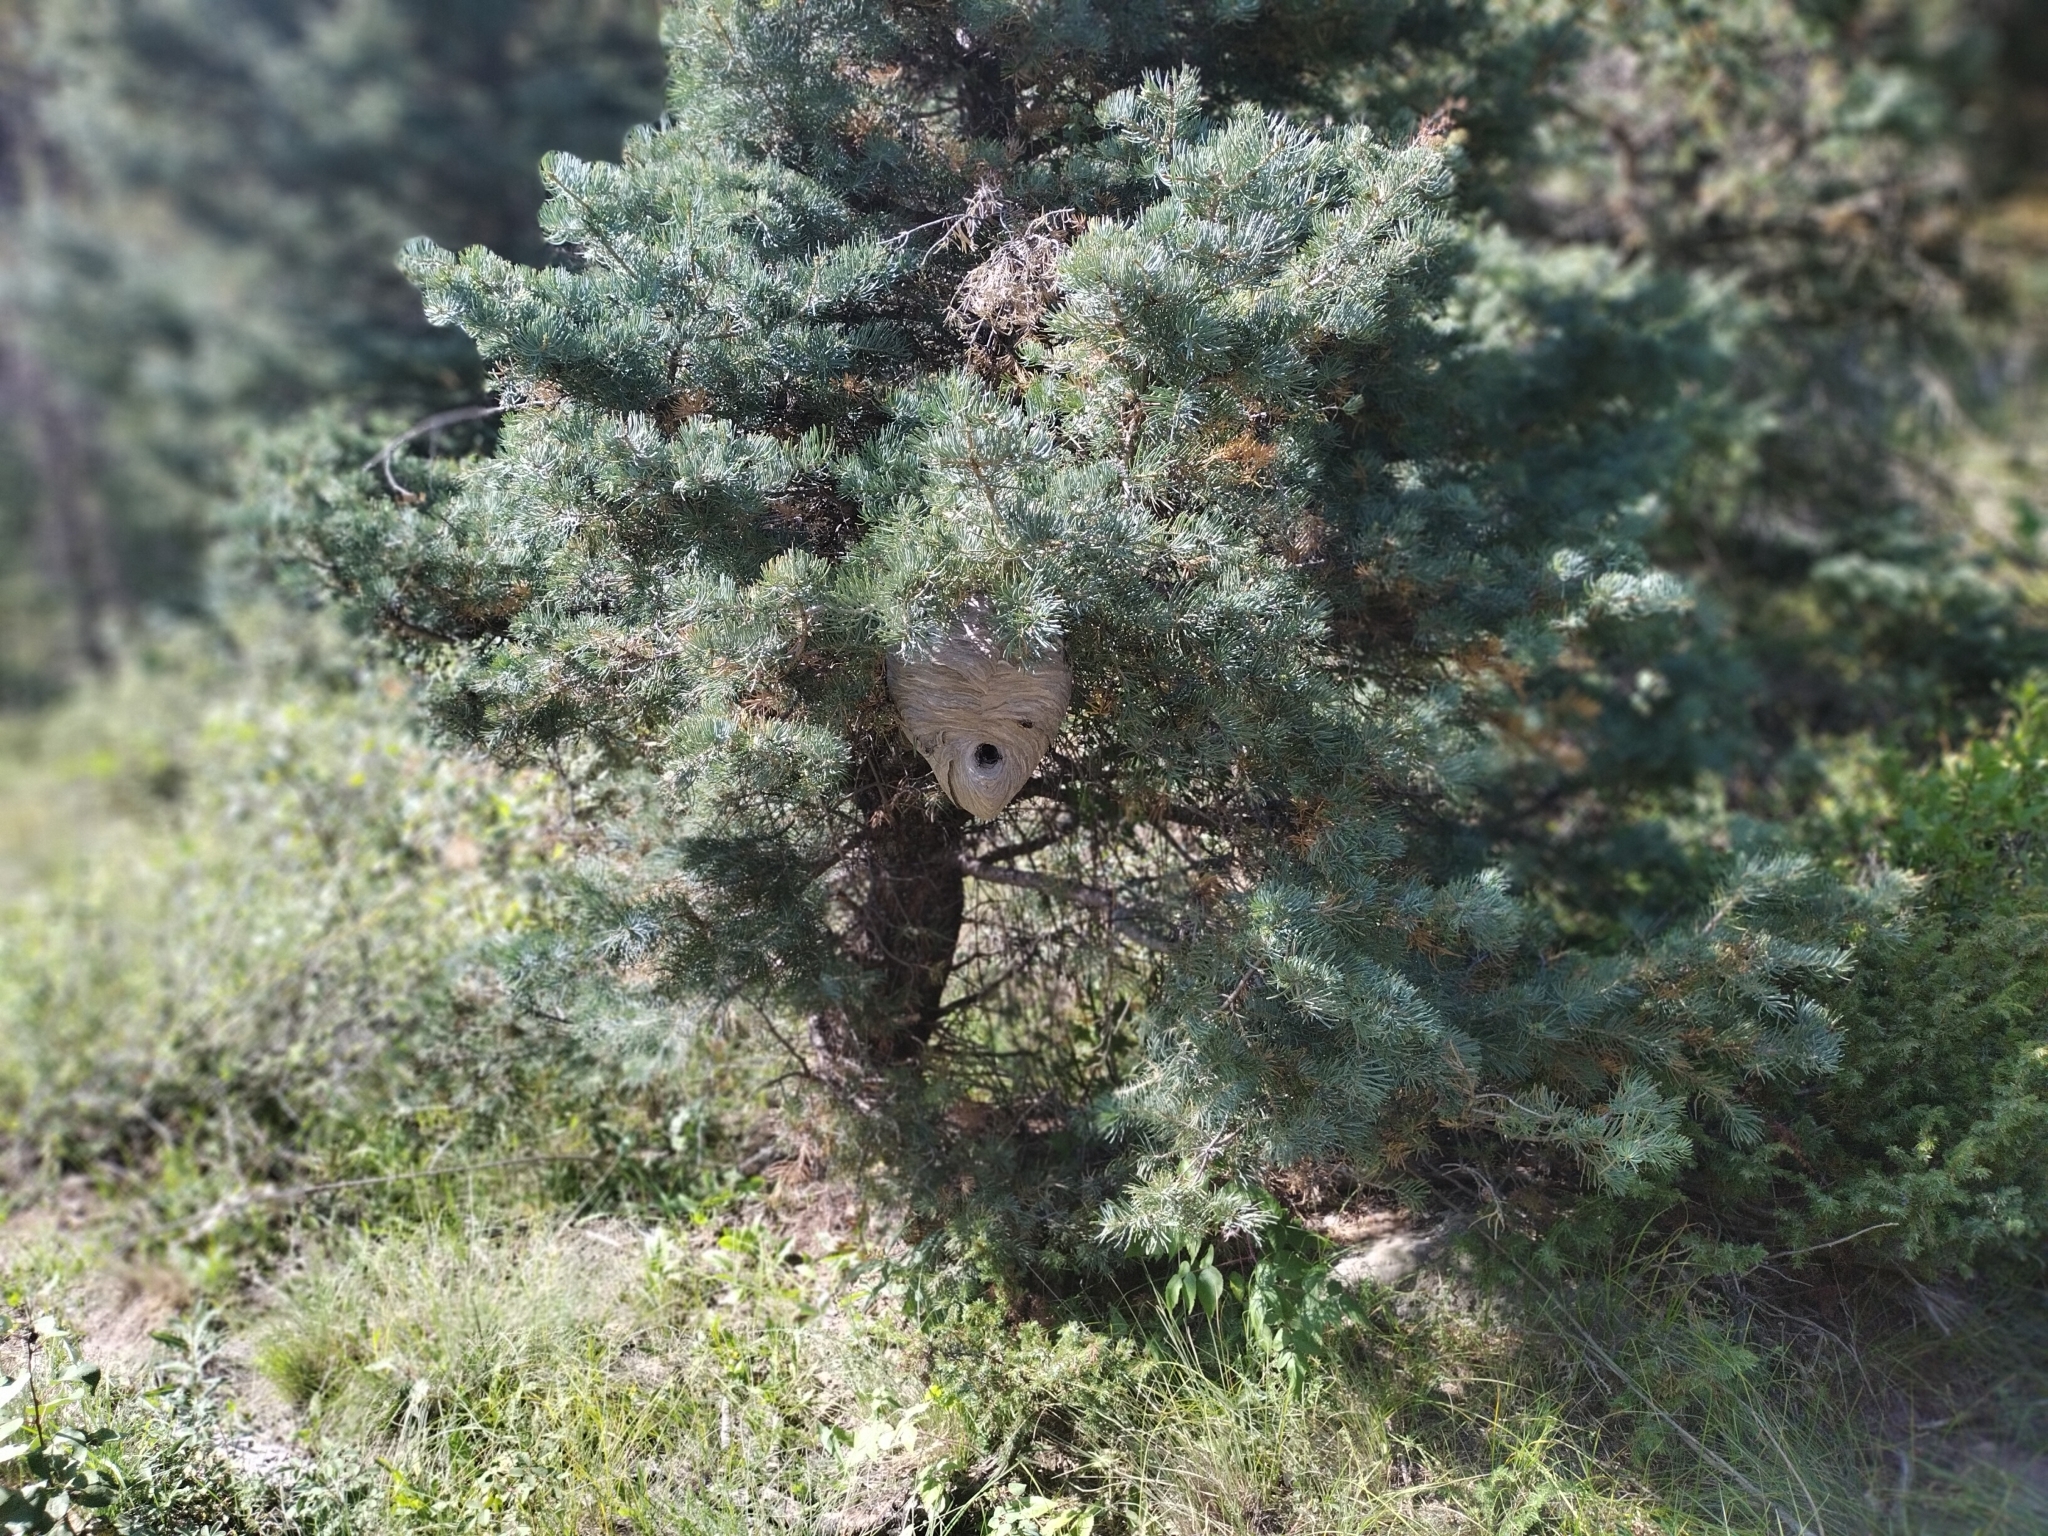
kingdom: Animalia
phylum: Arthropoda
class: Insecta
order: Hymenoptera
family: Vespidae
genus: Dolichovespula
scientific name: Dolichovespula maculata
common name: Bald-faced hornet
